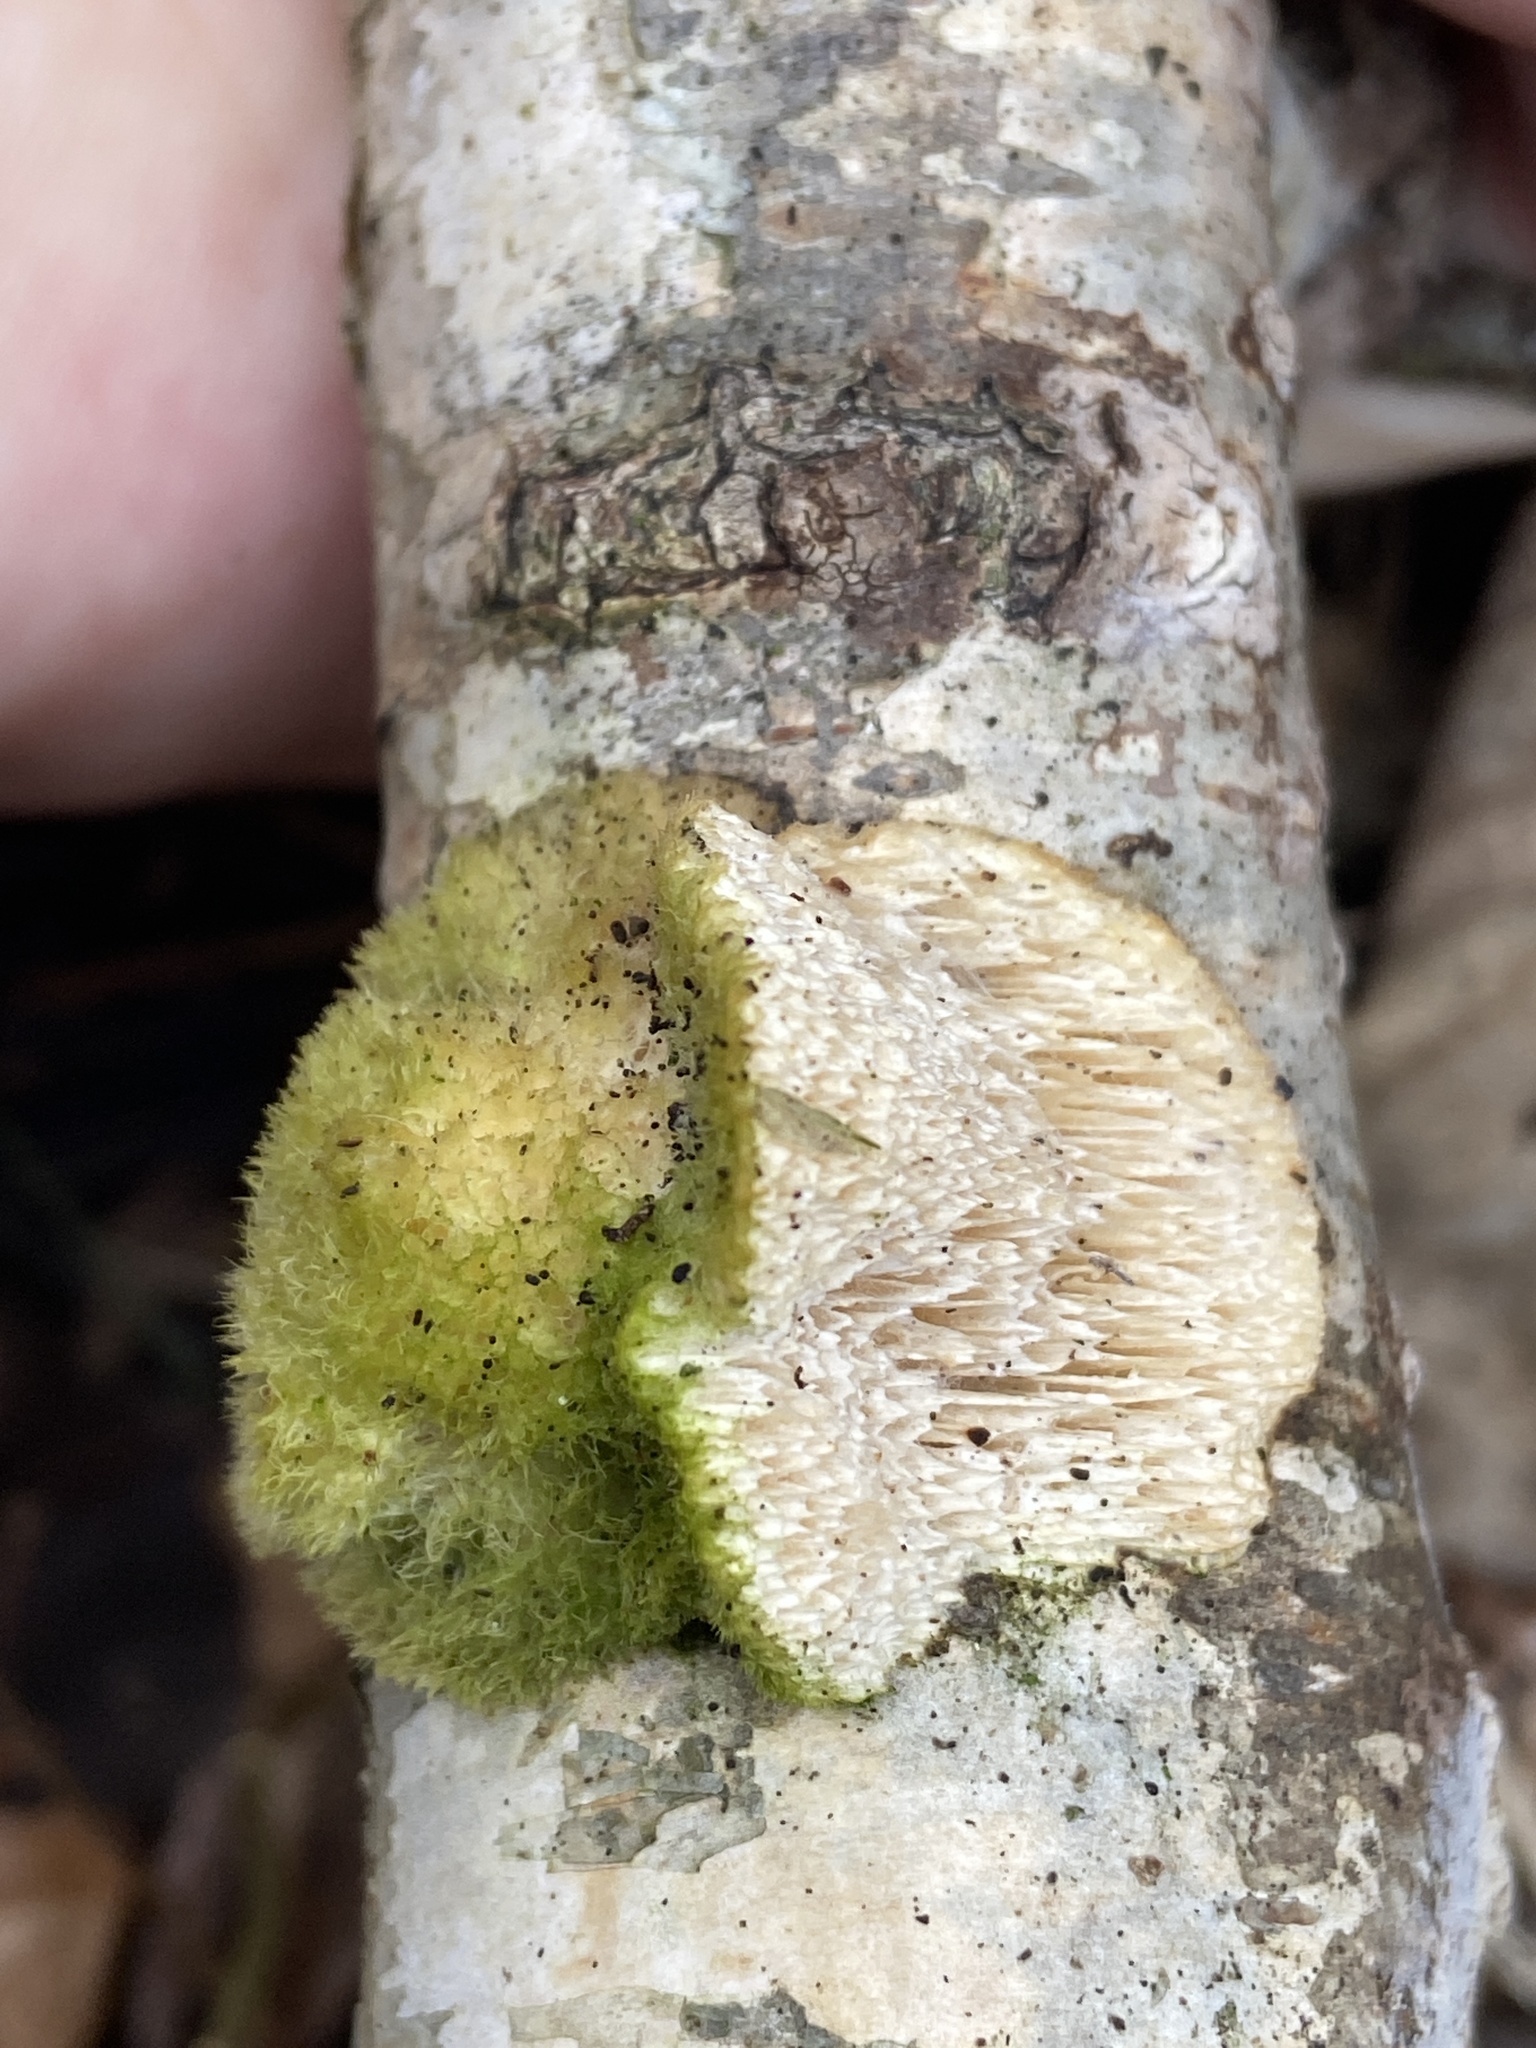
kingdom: Fungi
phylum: Basidiomycota
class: Agaricomycetes
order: Polyporales
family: Polyporaceae
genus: Trametes
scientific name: Trametes hirsuta
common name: Hairy bracket
